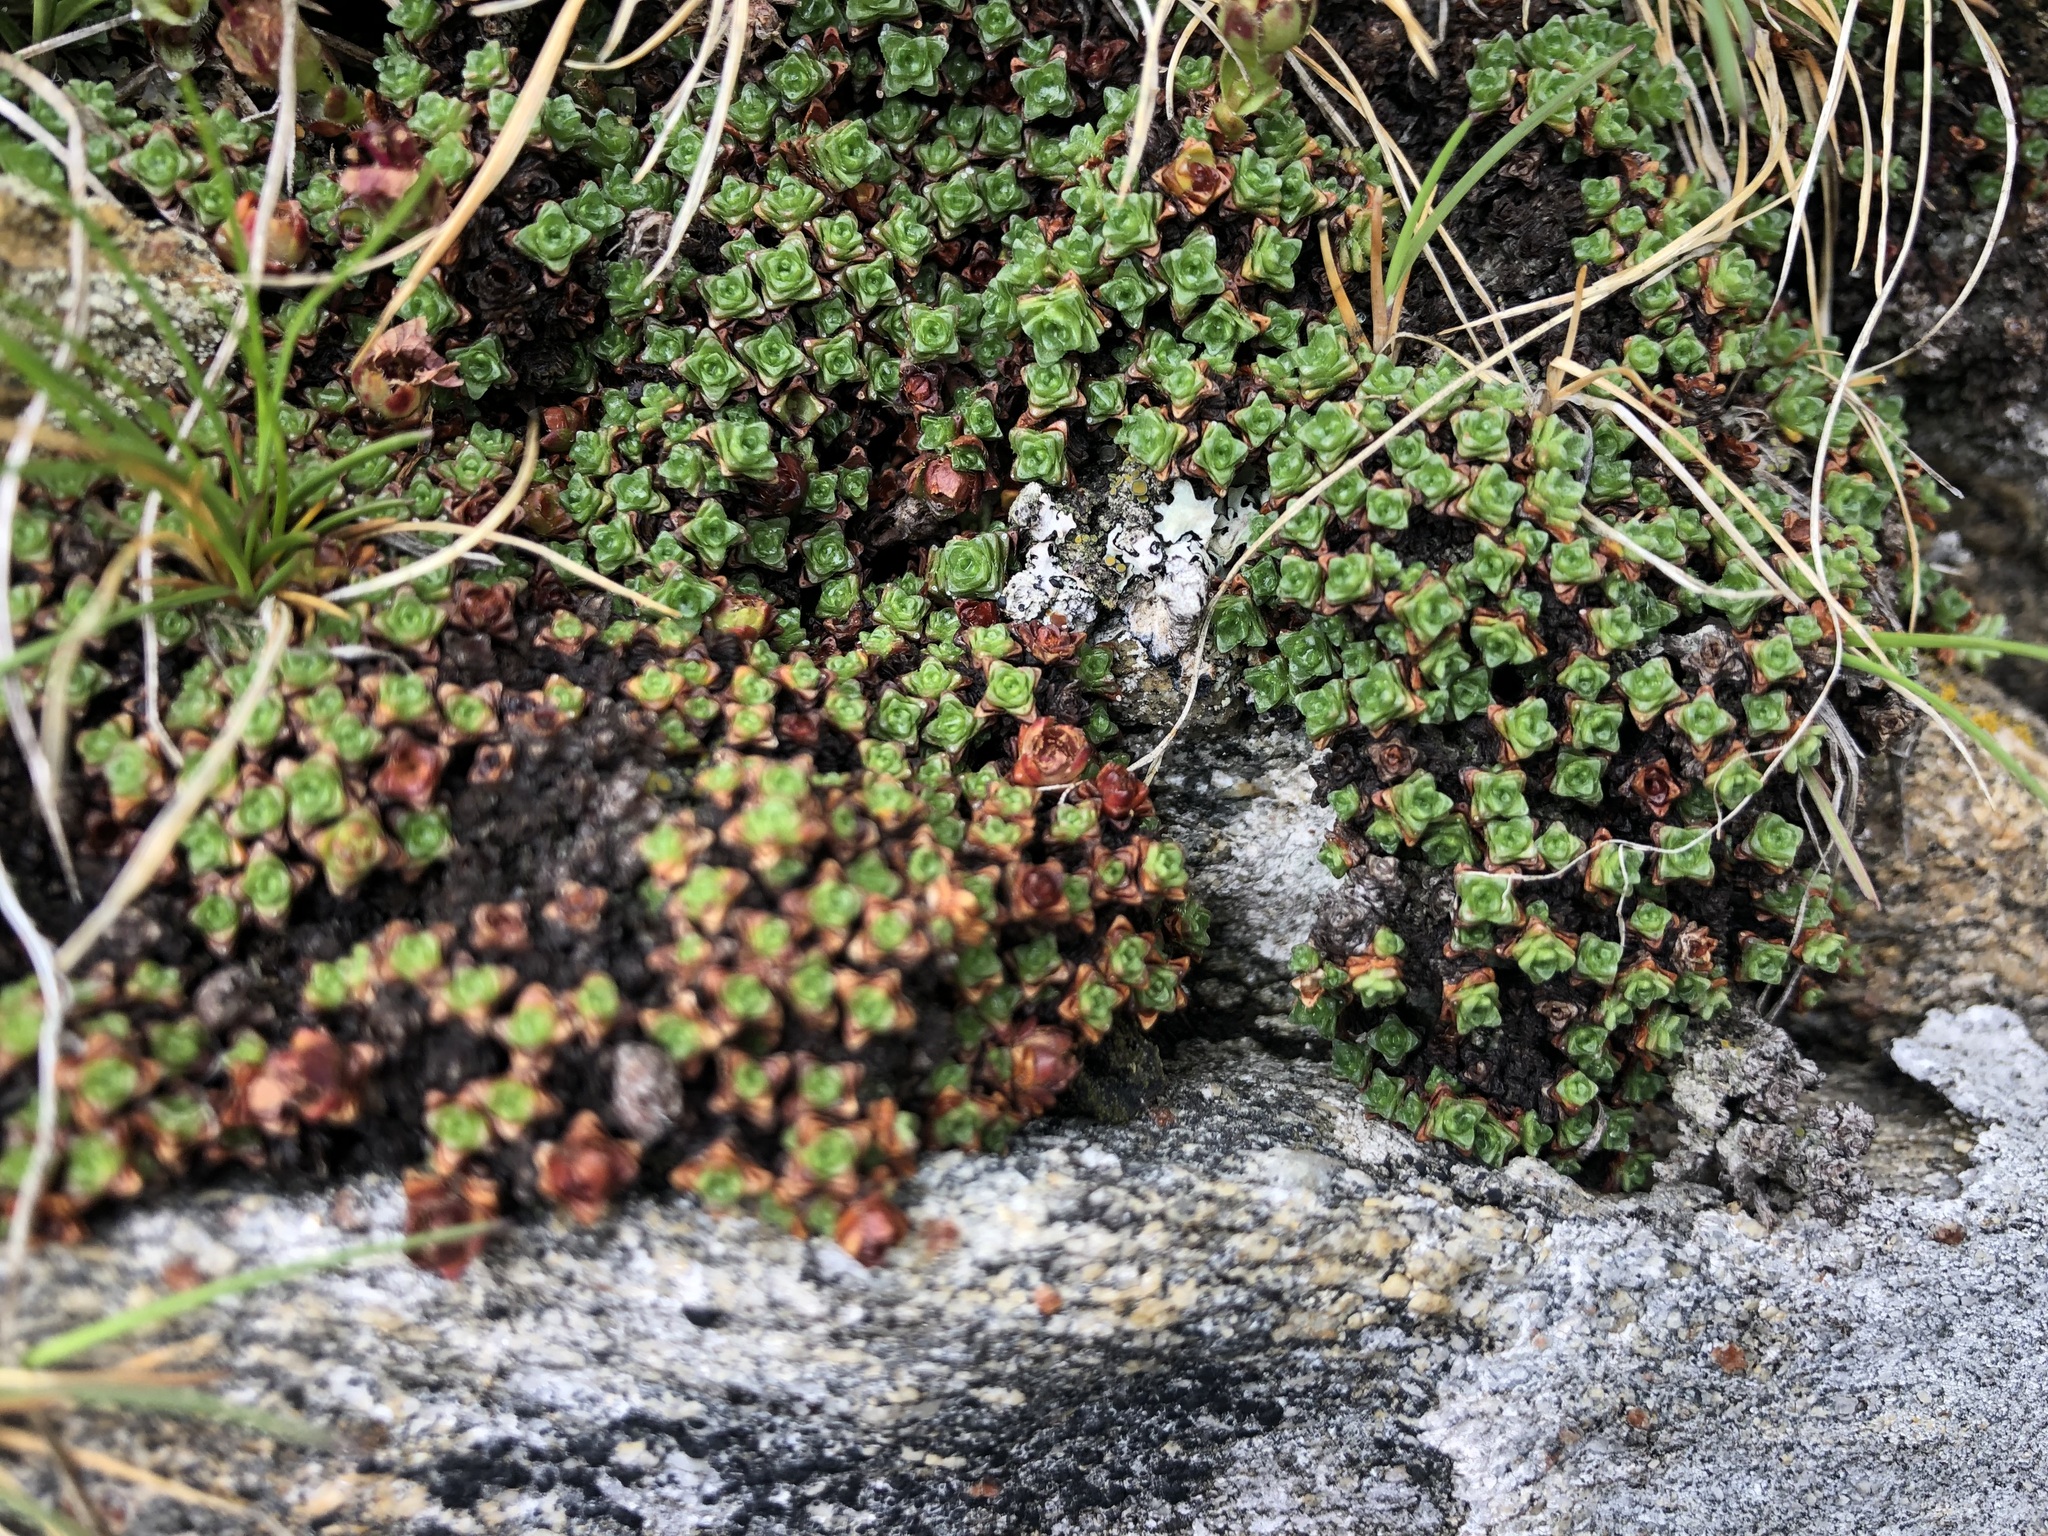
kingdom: Plantae
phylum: Tracheophyta
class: Magnoliopsida
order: Saxifragales
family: Saxifragaceae
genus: Saxifraga
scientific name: Saxifraga oppositifolia
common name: Purple saxifrage
